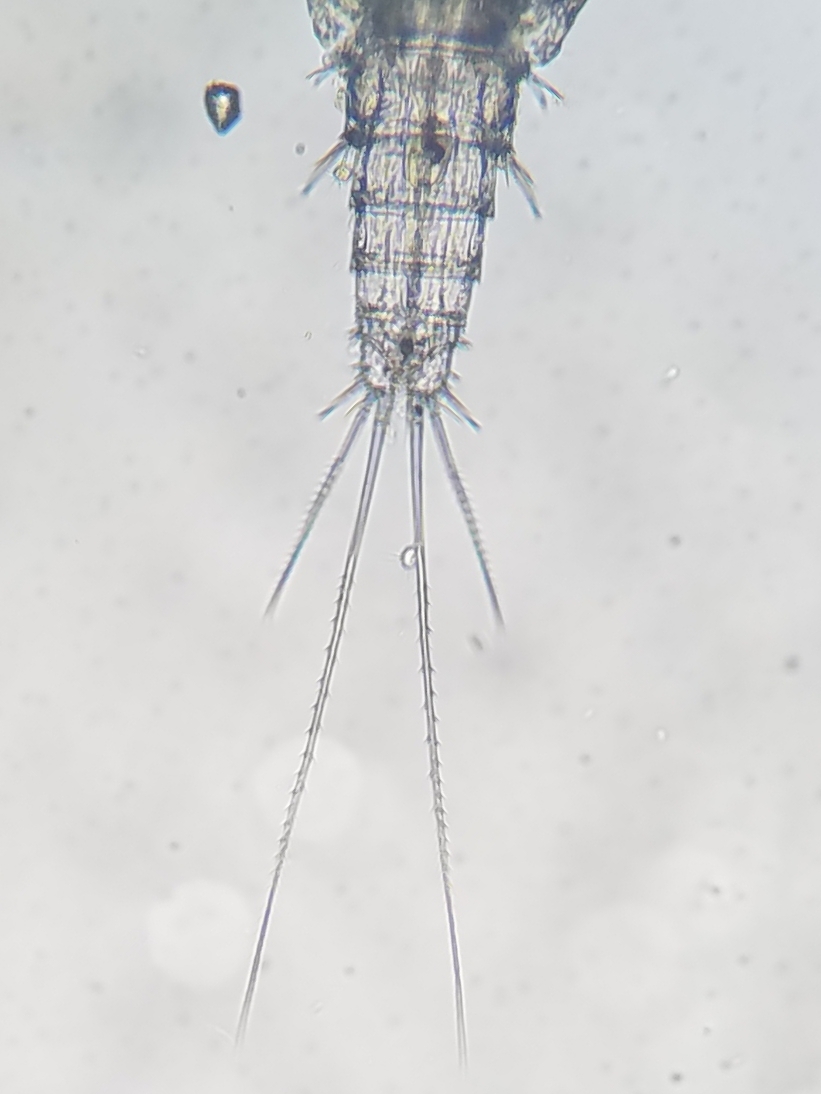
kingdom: Animalia
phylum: Arthropoda
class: Copepoda
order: Cyclopoida
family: Cyclopidae
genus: Ectocyclops
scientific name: Ectocyclops
